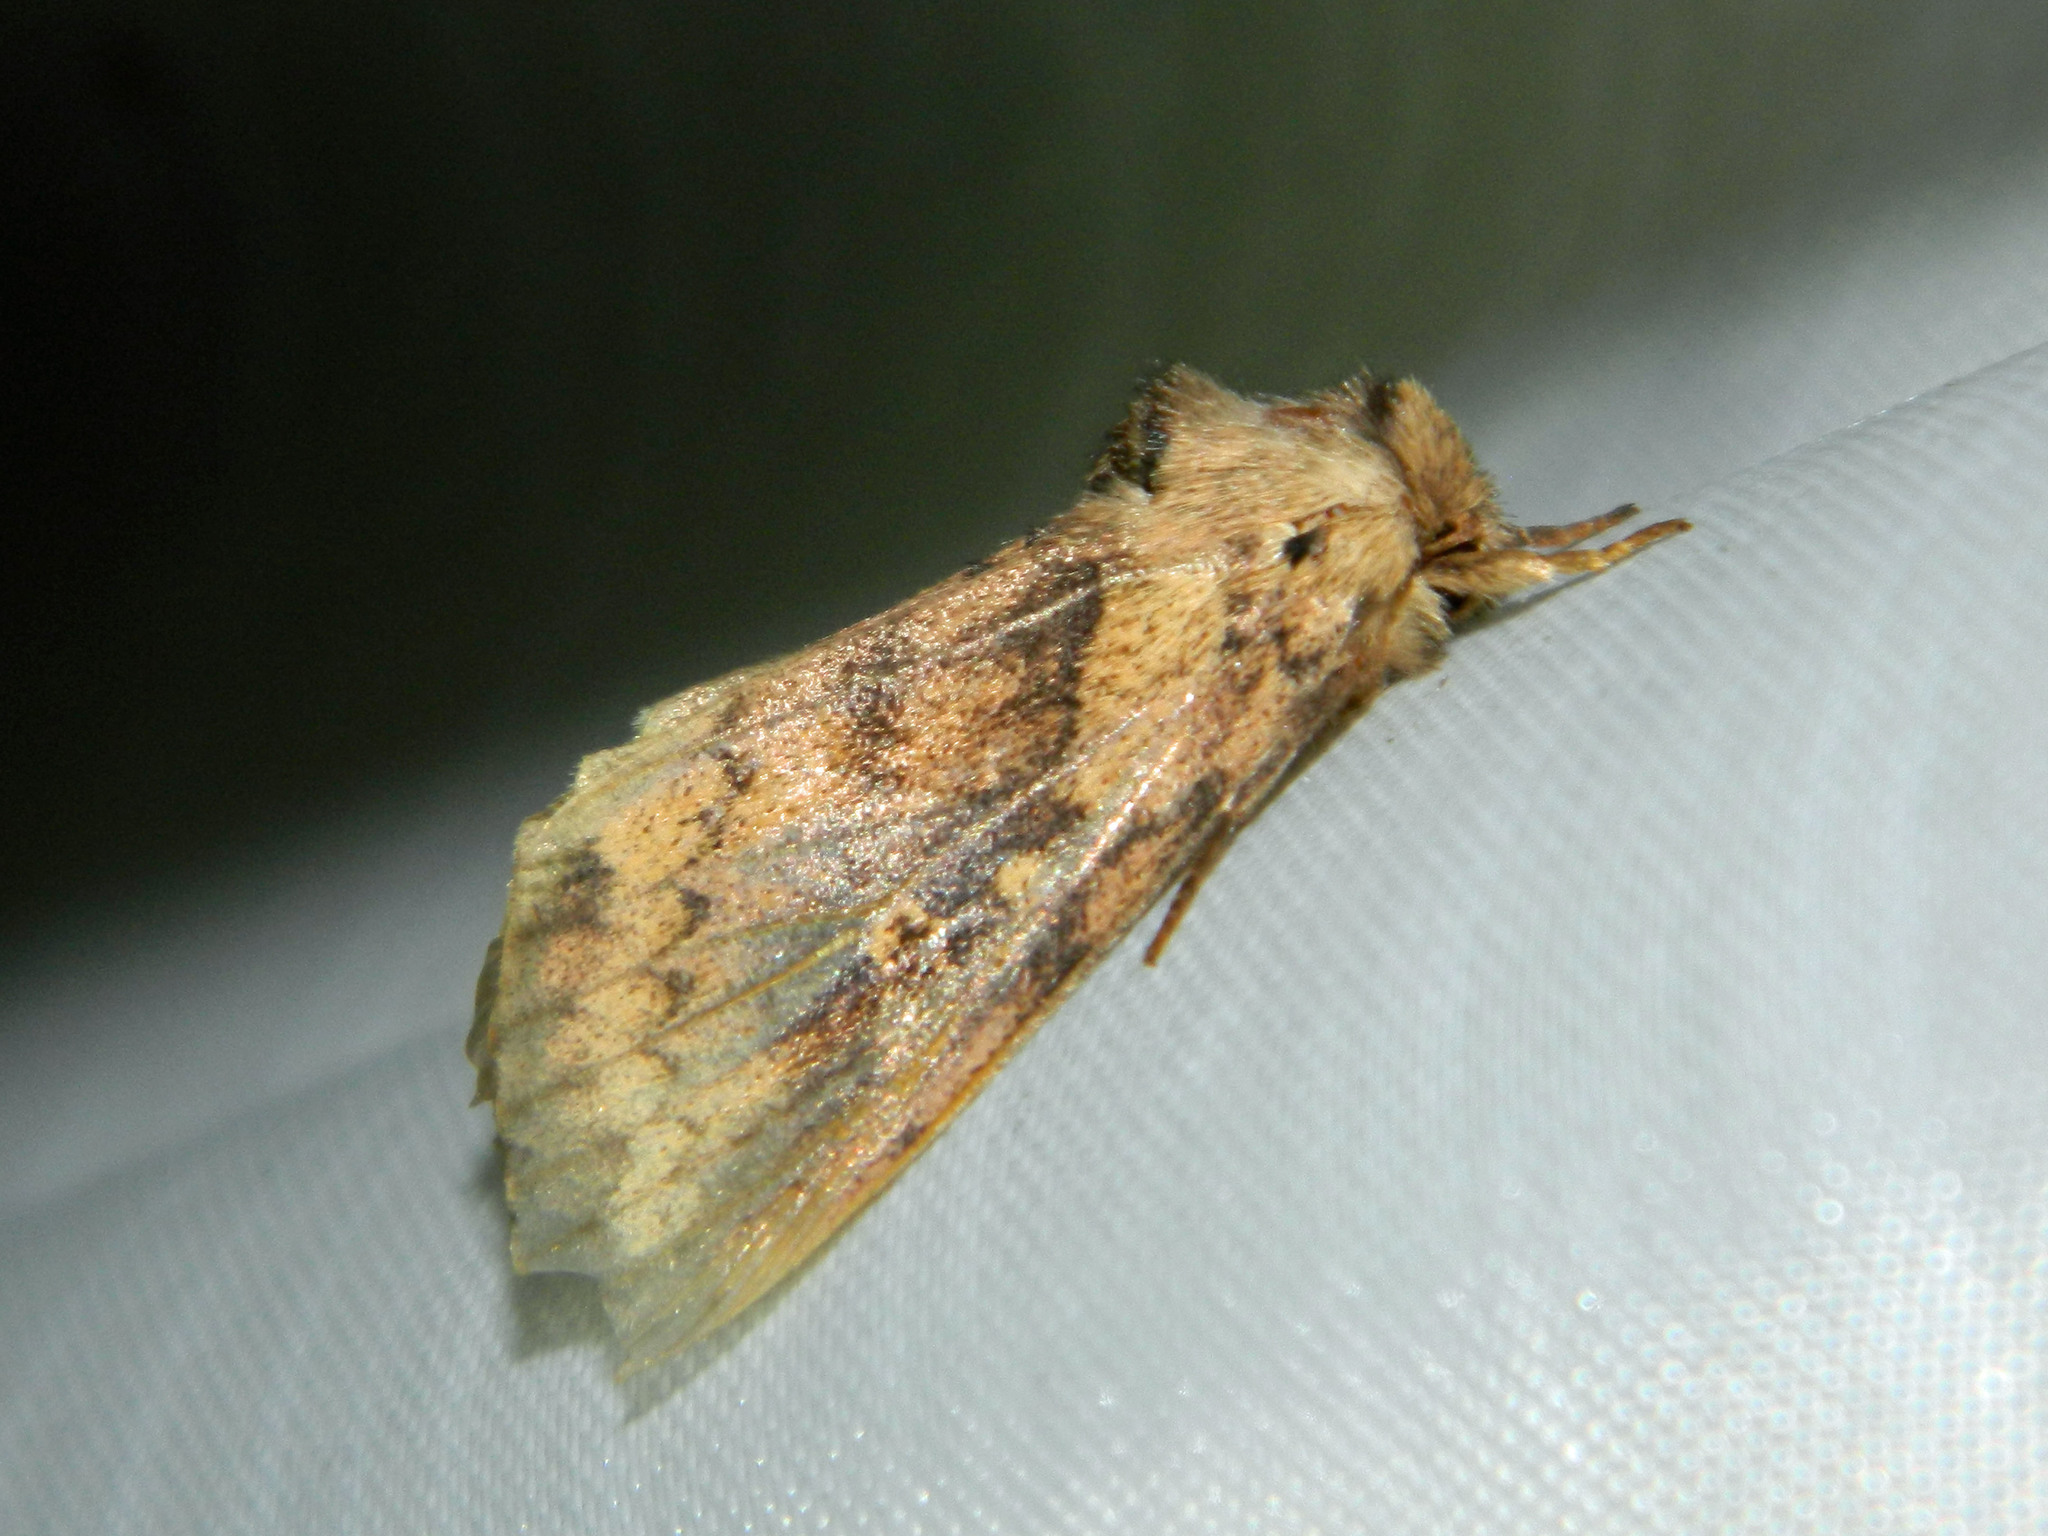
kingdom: Animalia
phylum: Arthropoda
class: Insecta
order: Lepidoptera
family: Noctuidae
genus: Bellura
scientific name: Bellura vulnifica
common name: Black-tailed diver moth
